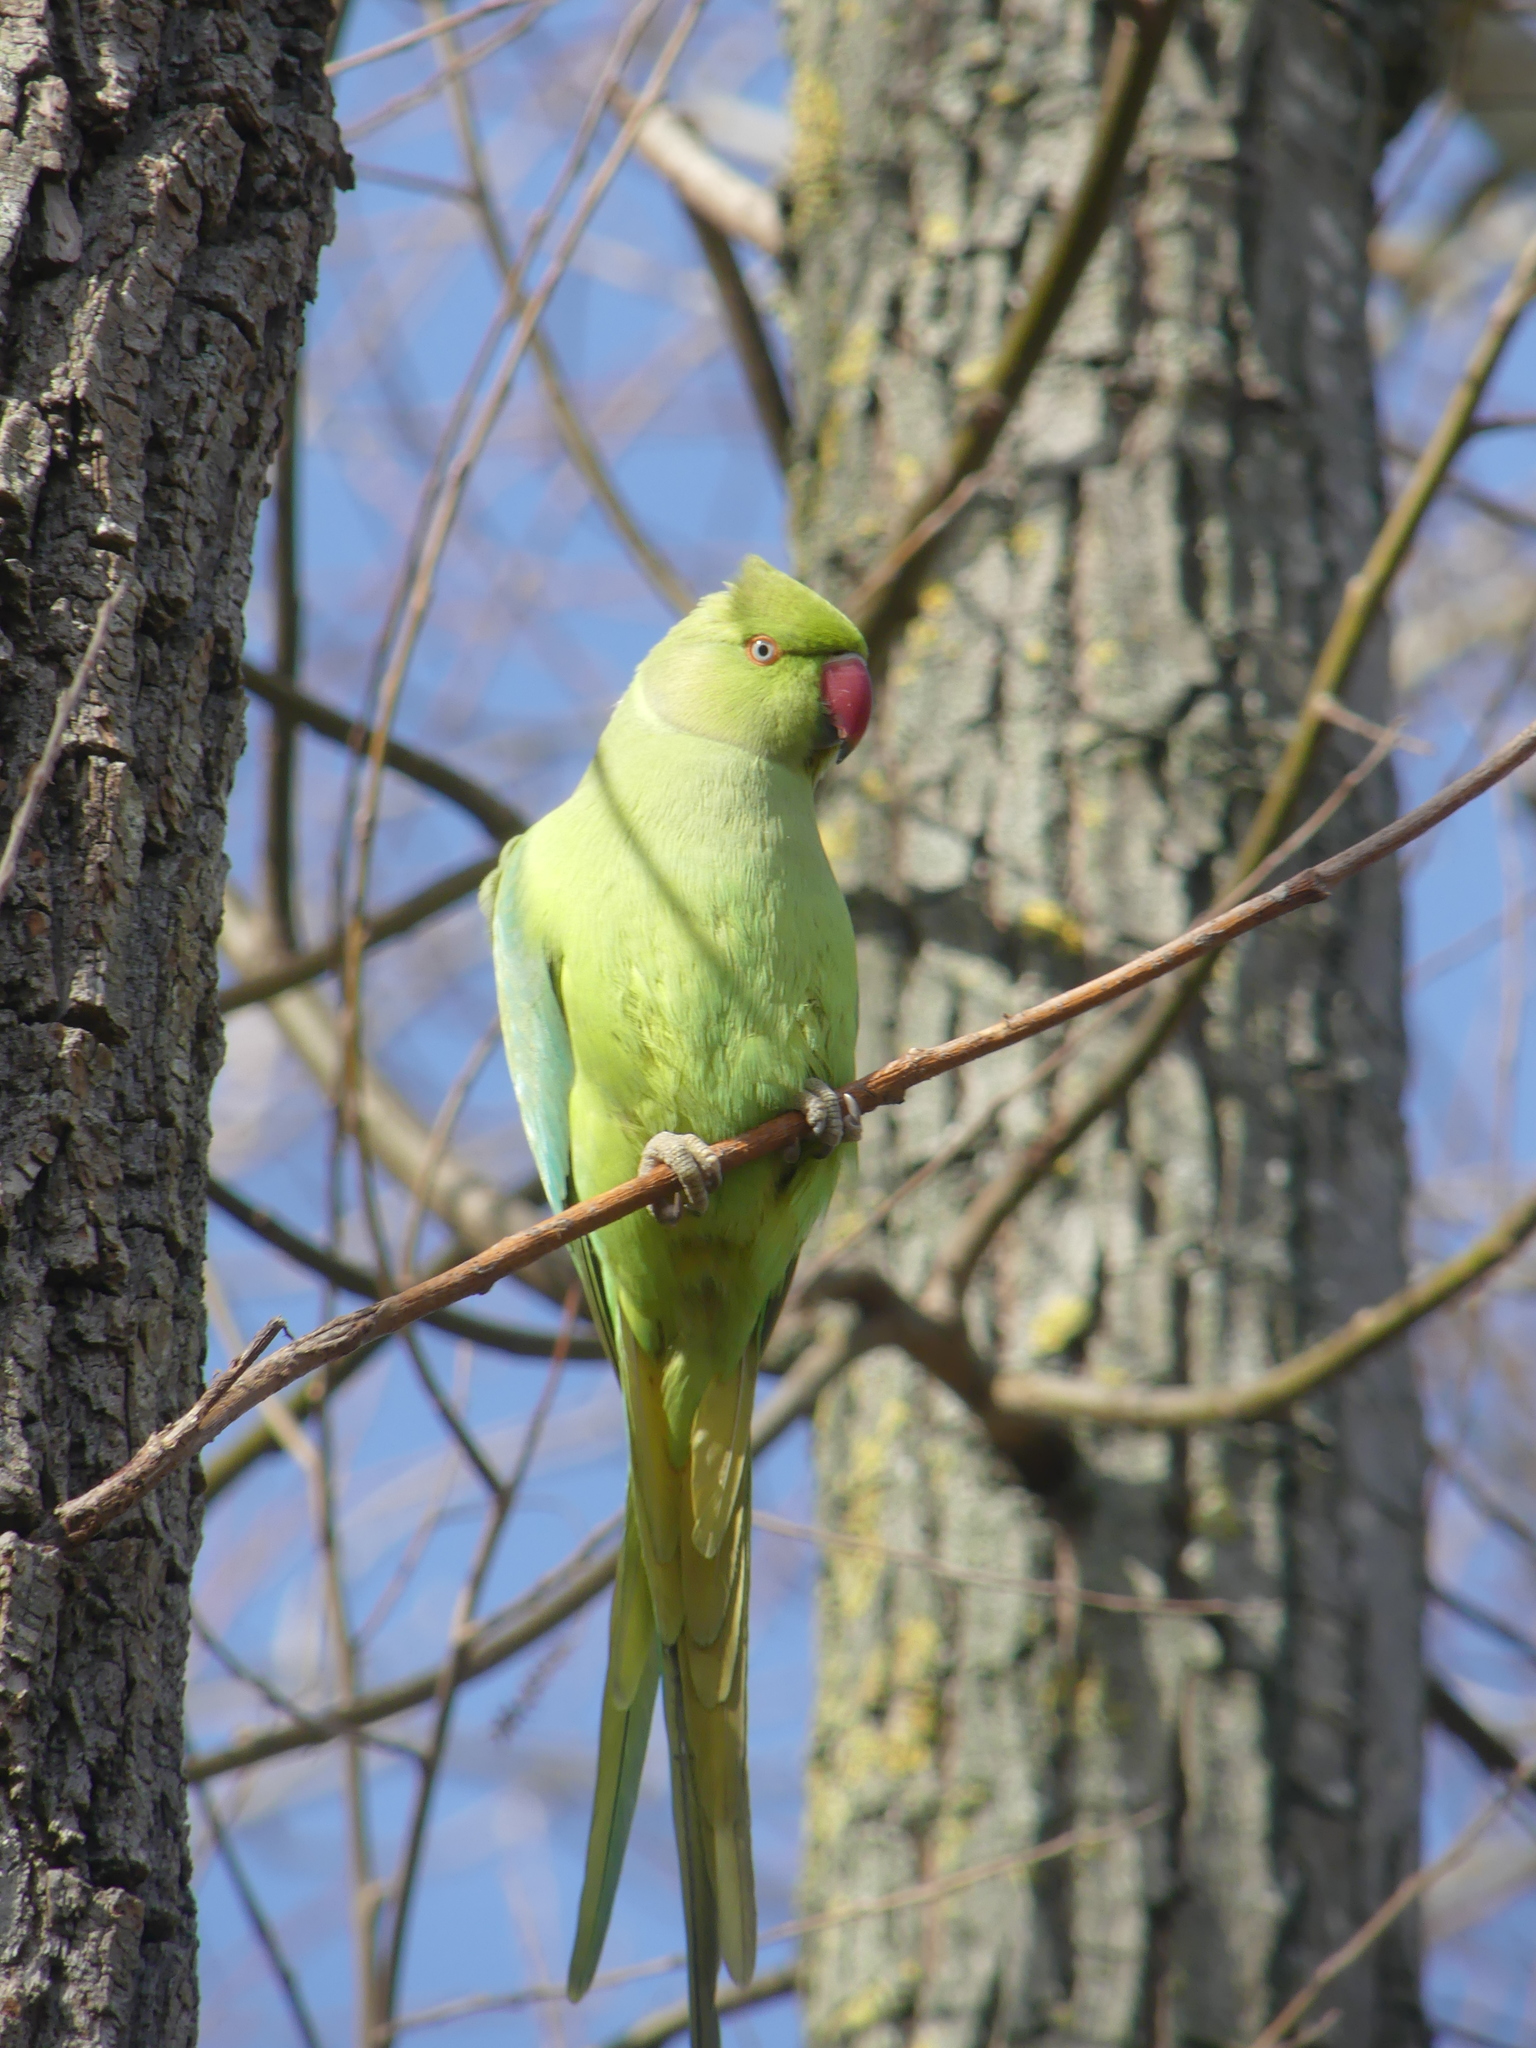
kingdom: Animalia
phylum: Chordata
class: Aves
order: Psittaciformes
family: Psittacidae
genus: Psittacula
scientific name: Psittacula krameri
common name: Rose-ringed parakeet
